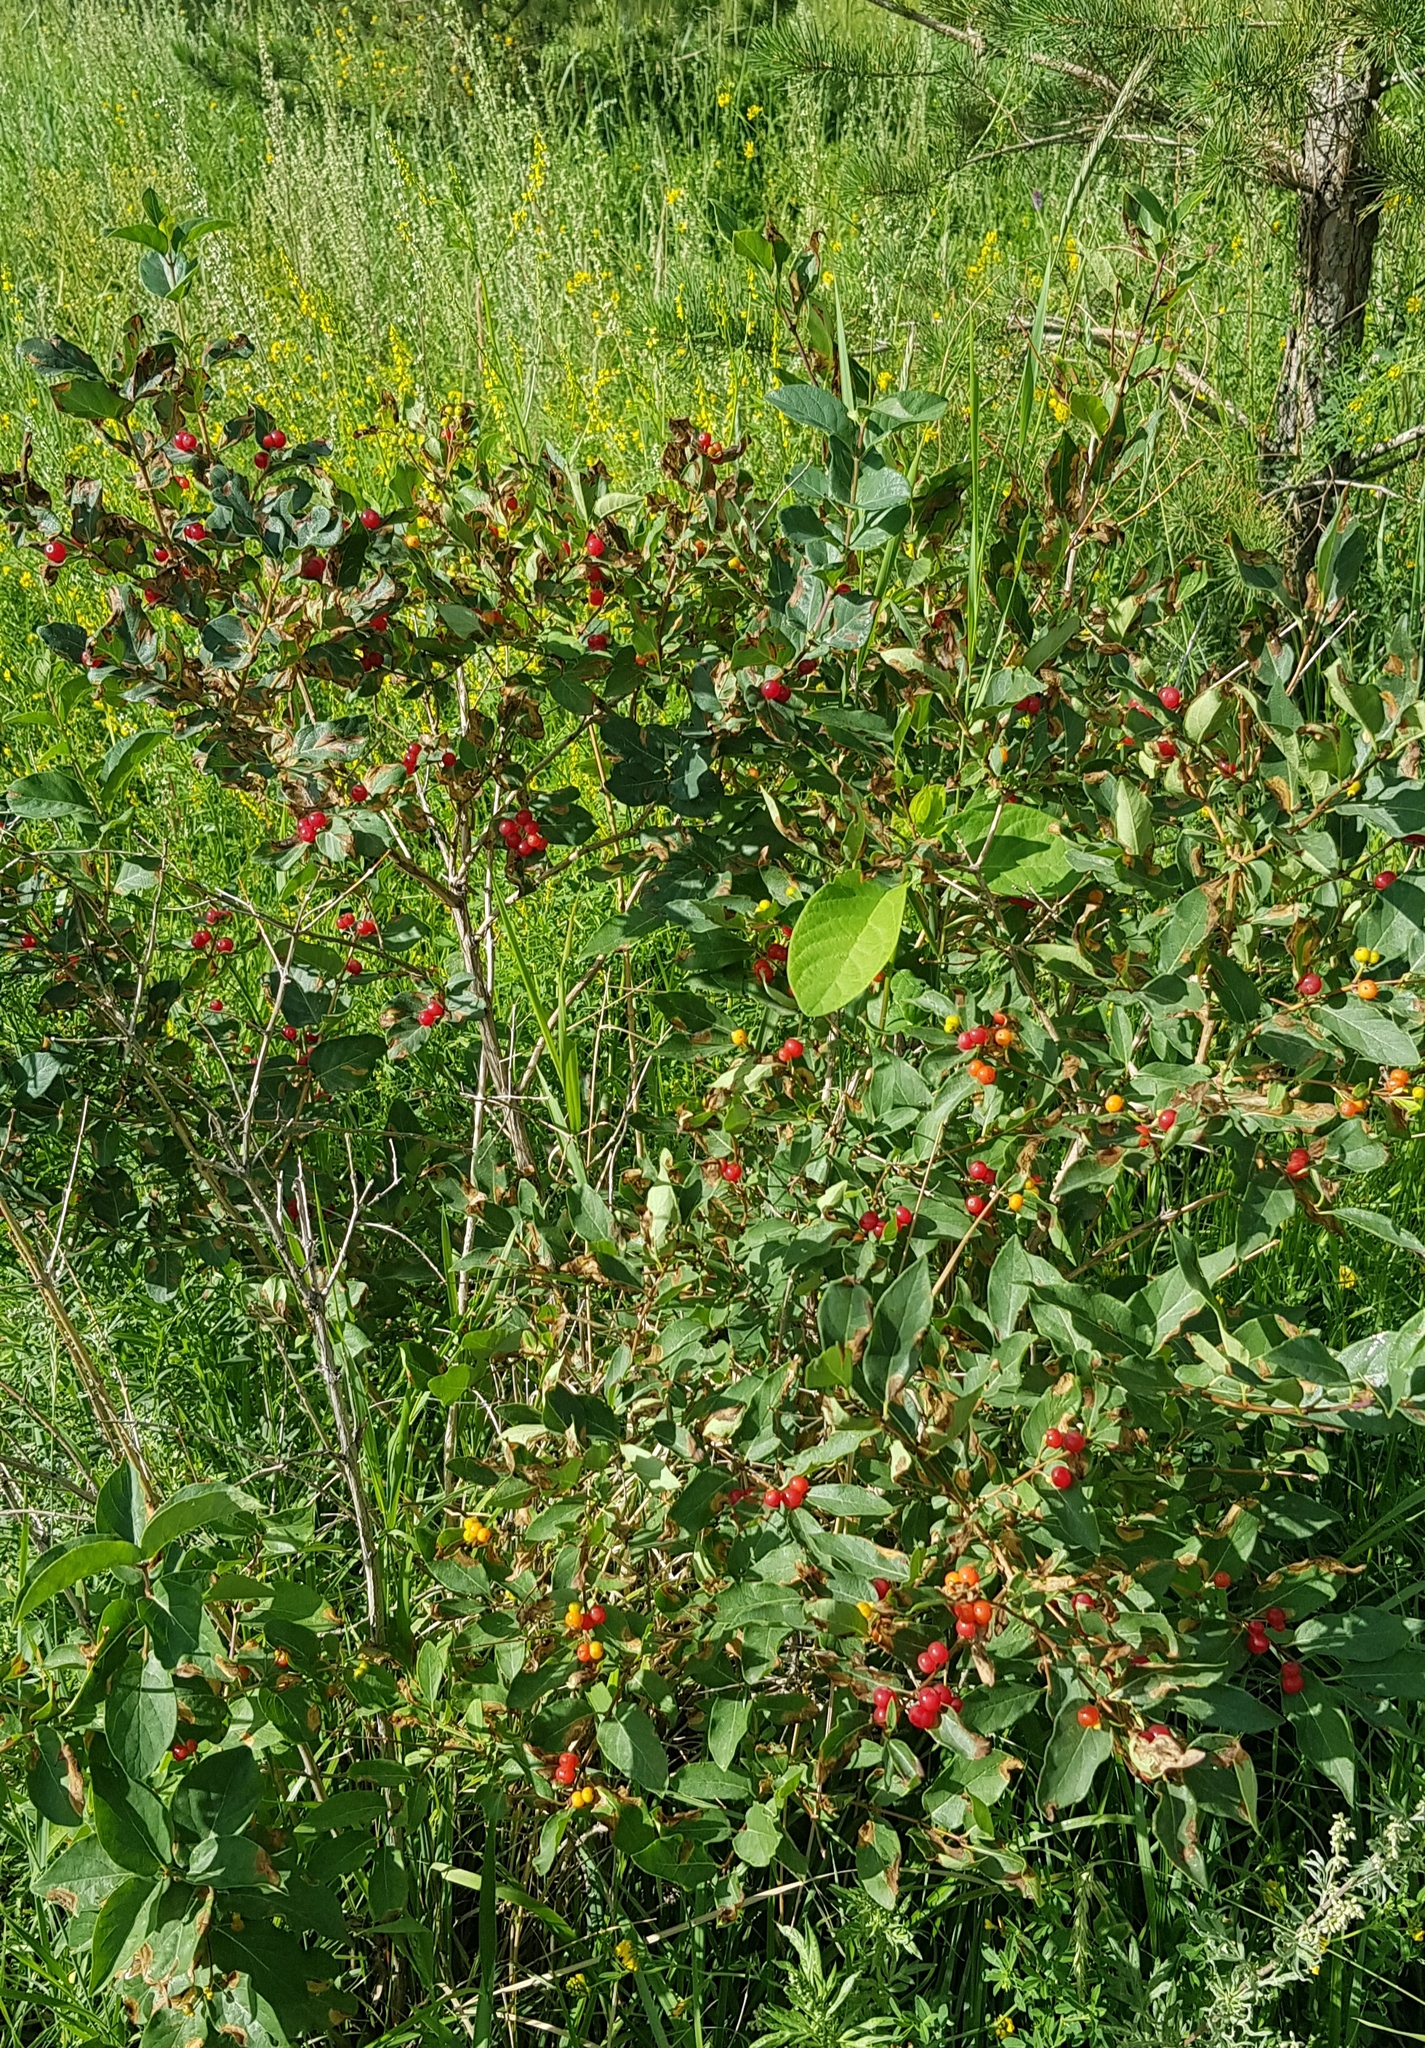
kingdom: Plantae
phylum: Tracheophyta
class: Magnoliopsida
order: Dipsacales
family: Caprifoliaceae
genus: Lonicera
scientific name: Lonicera tatarica
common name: Tatarian honeysuckle
